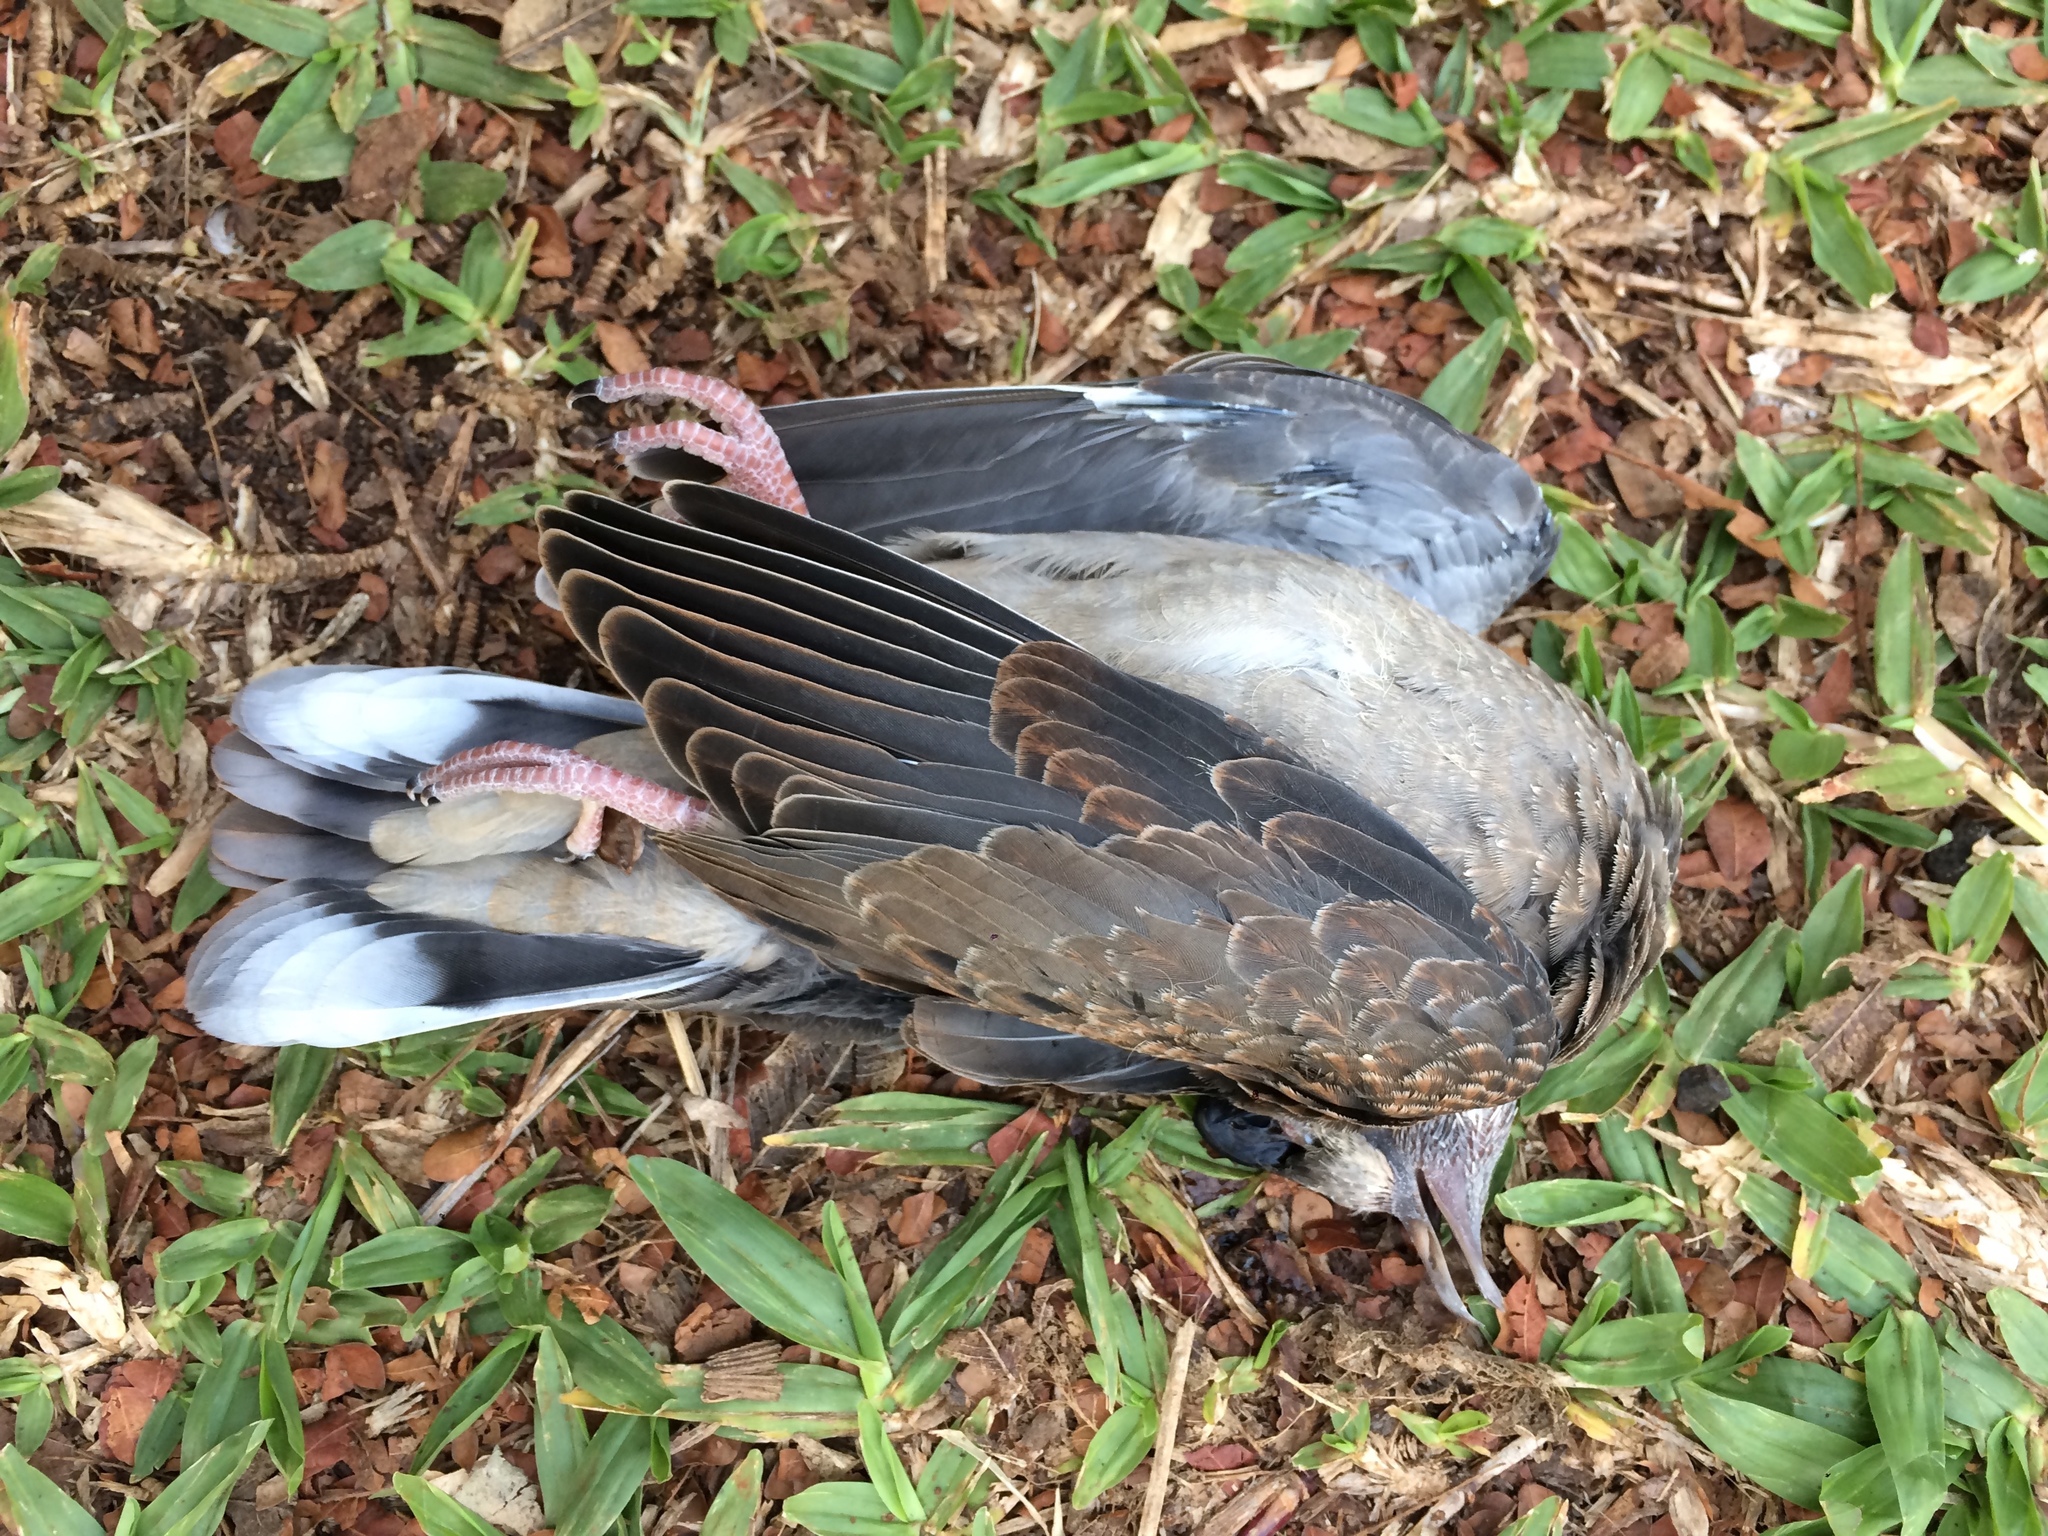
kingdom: Animalia
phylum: Chordata
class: Aves
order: Columbiformes
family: Columbidae
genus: Zenaida
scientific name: Zenaida auriculata
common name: Eared dove
